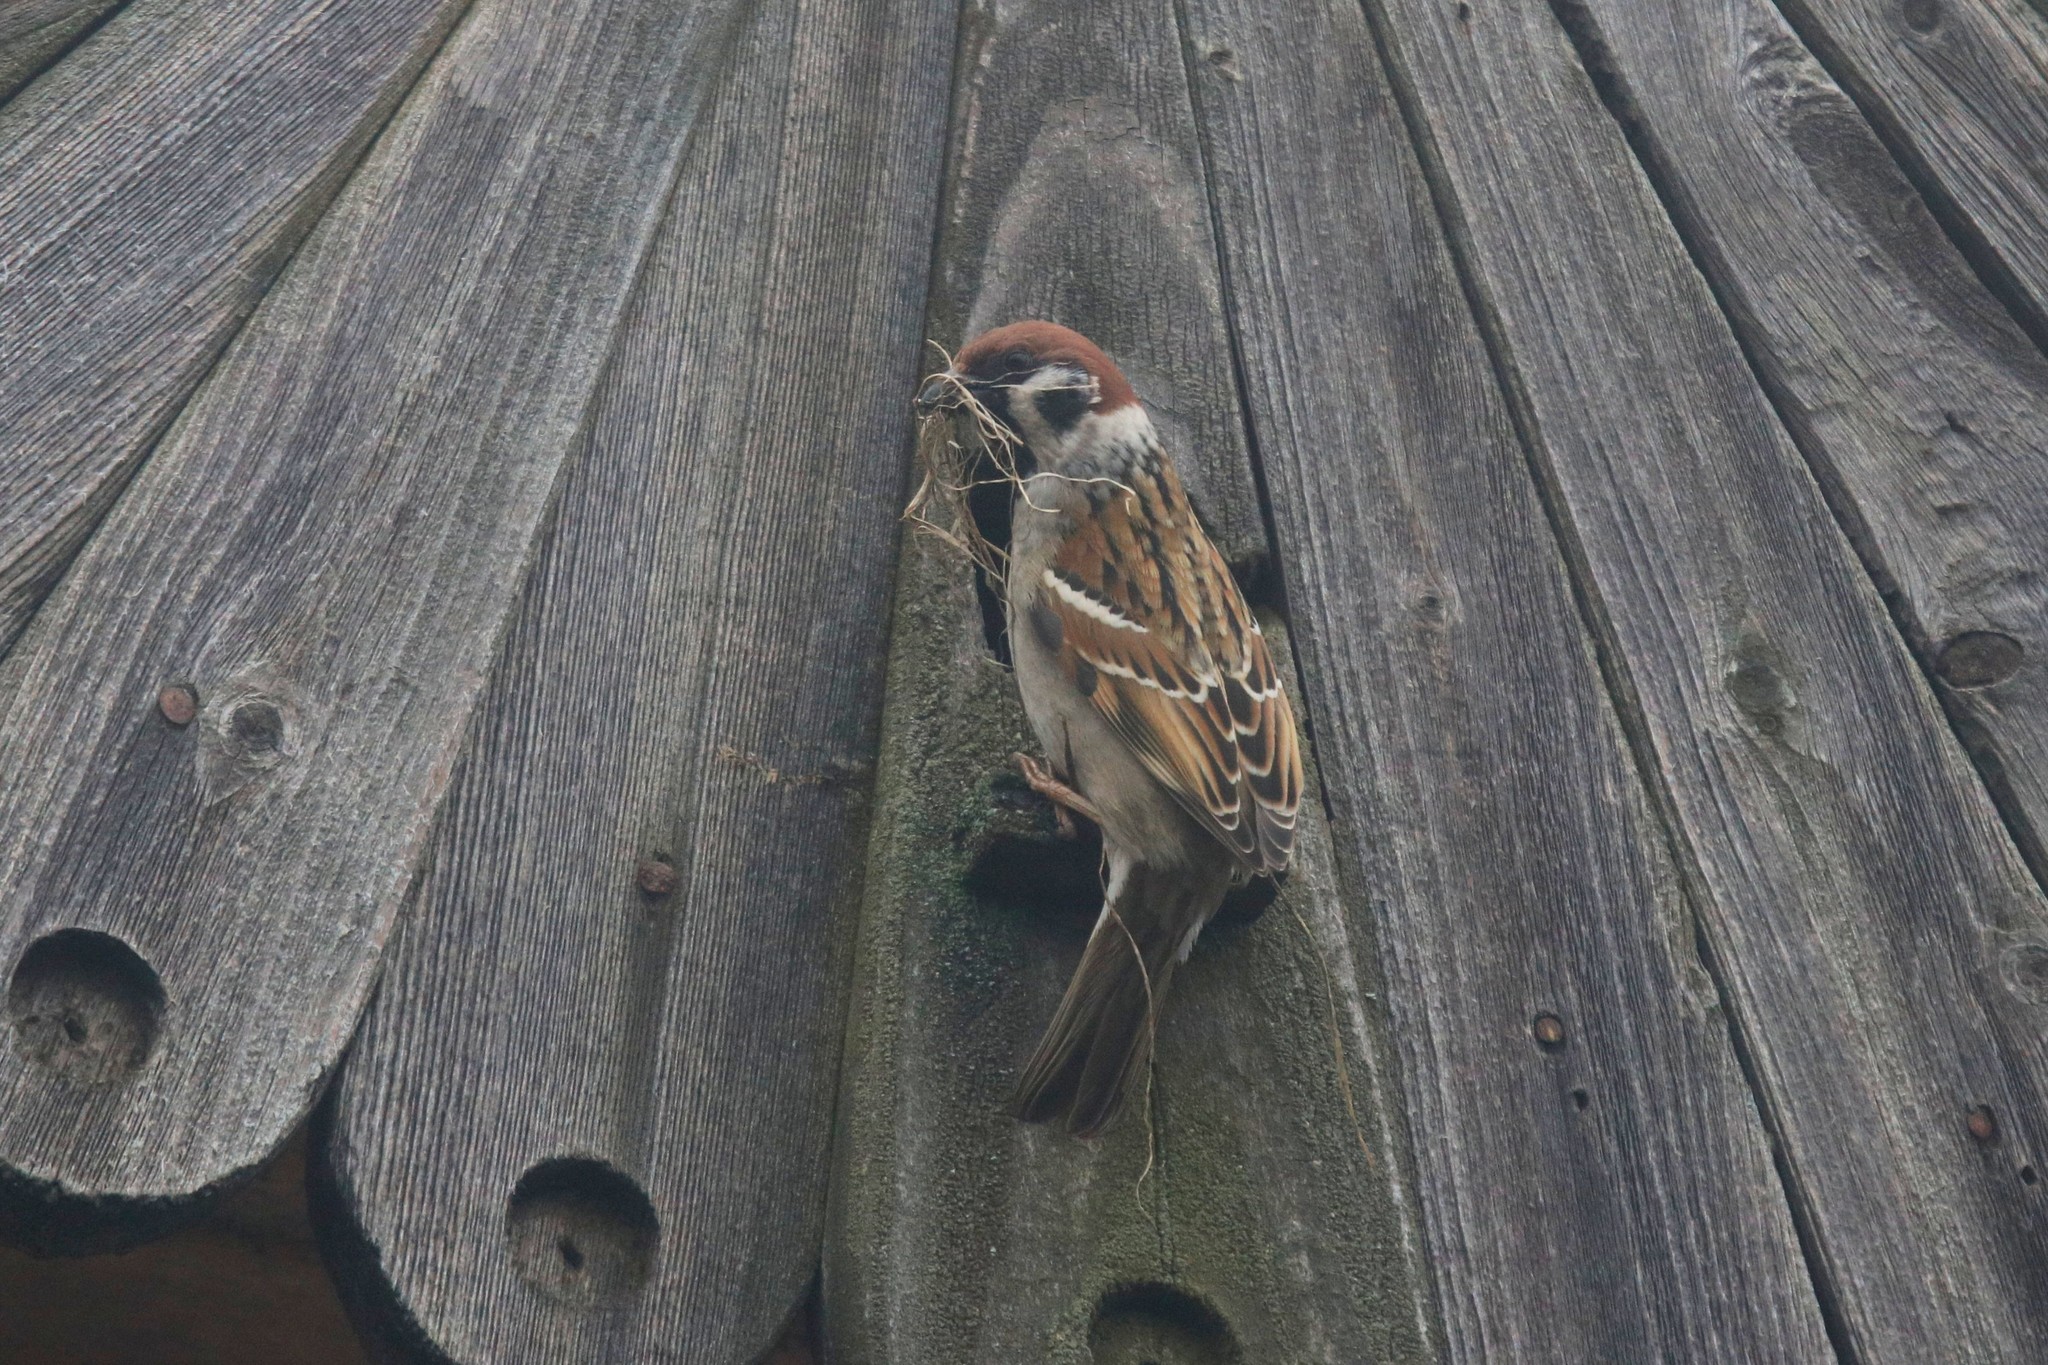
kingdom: Animalia
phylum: Chordata
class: Aves
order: Passeriformes
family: Passeridae
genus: Passer
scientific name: Passer montanus
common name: Eurasian tree sparrow
